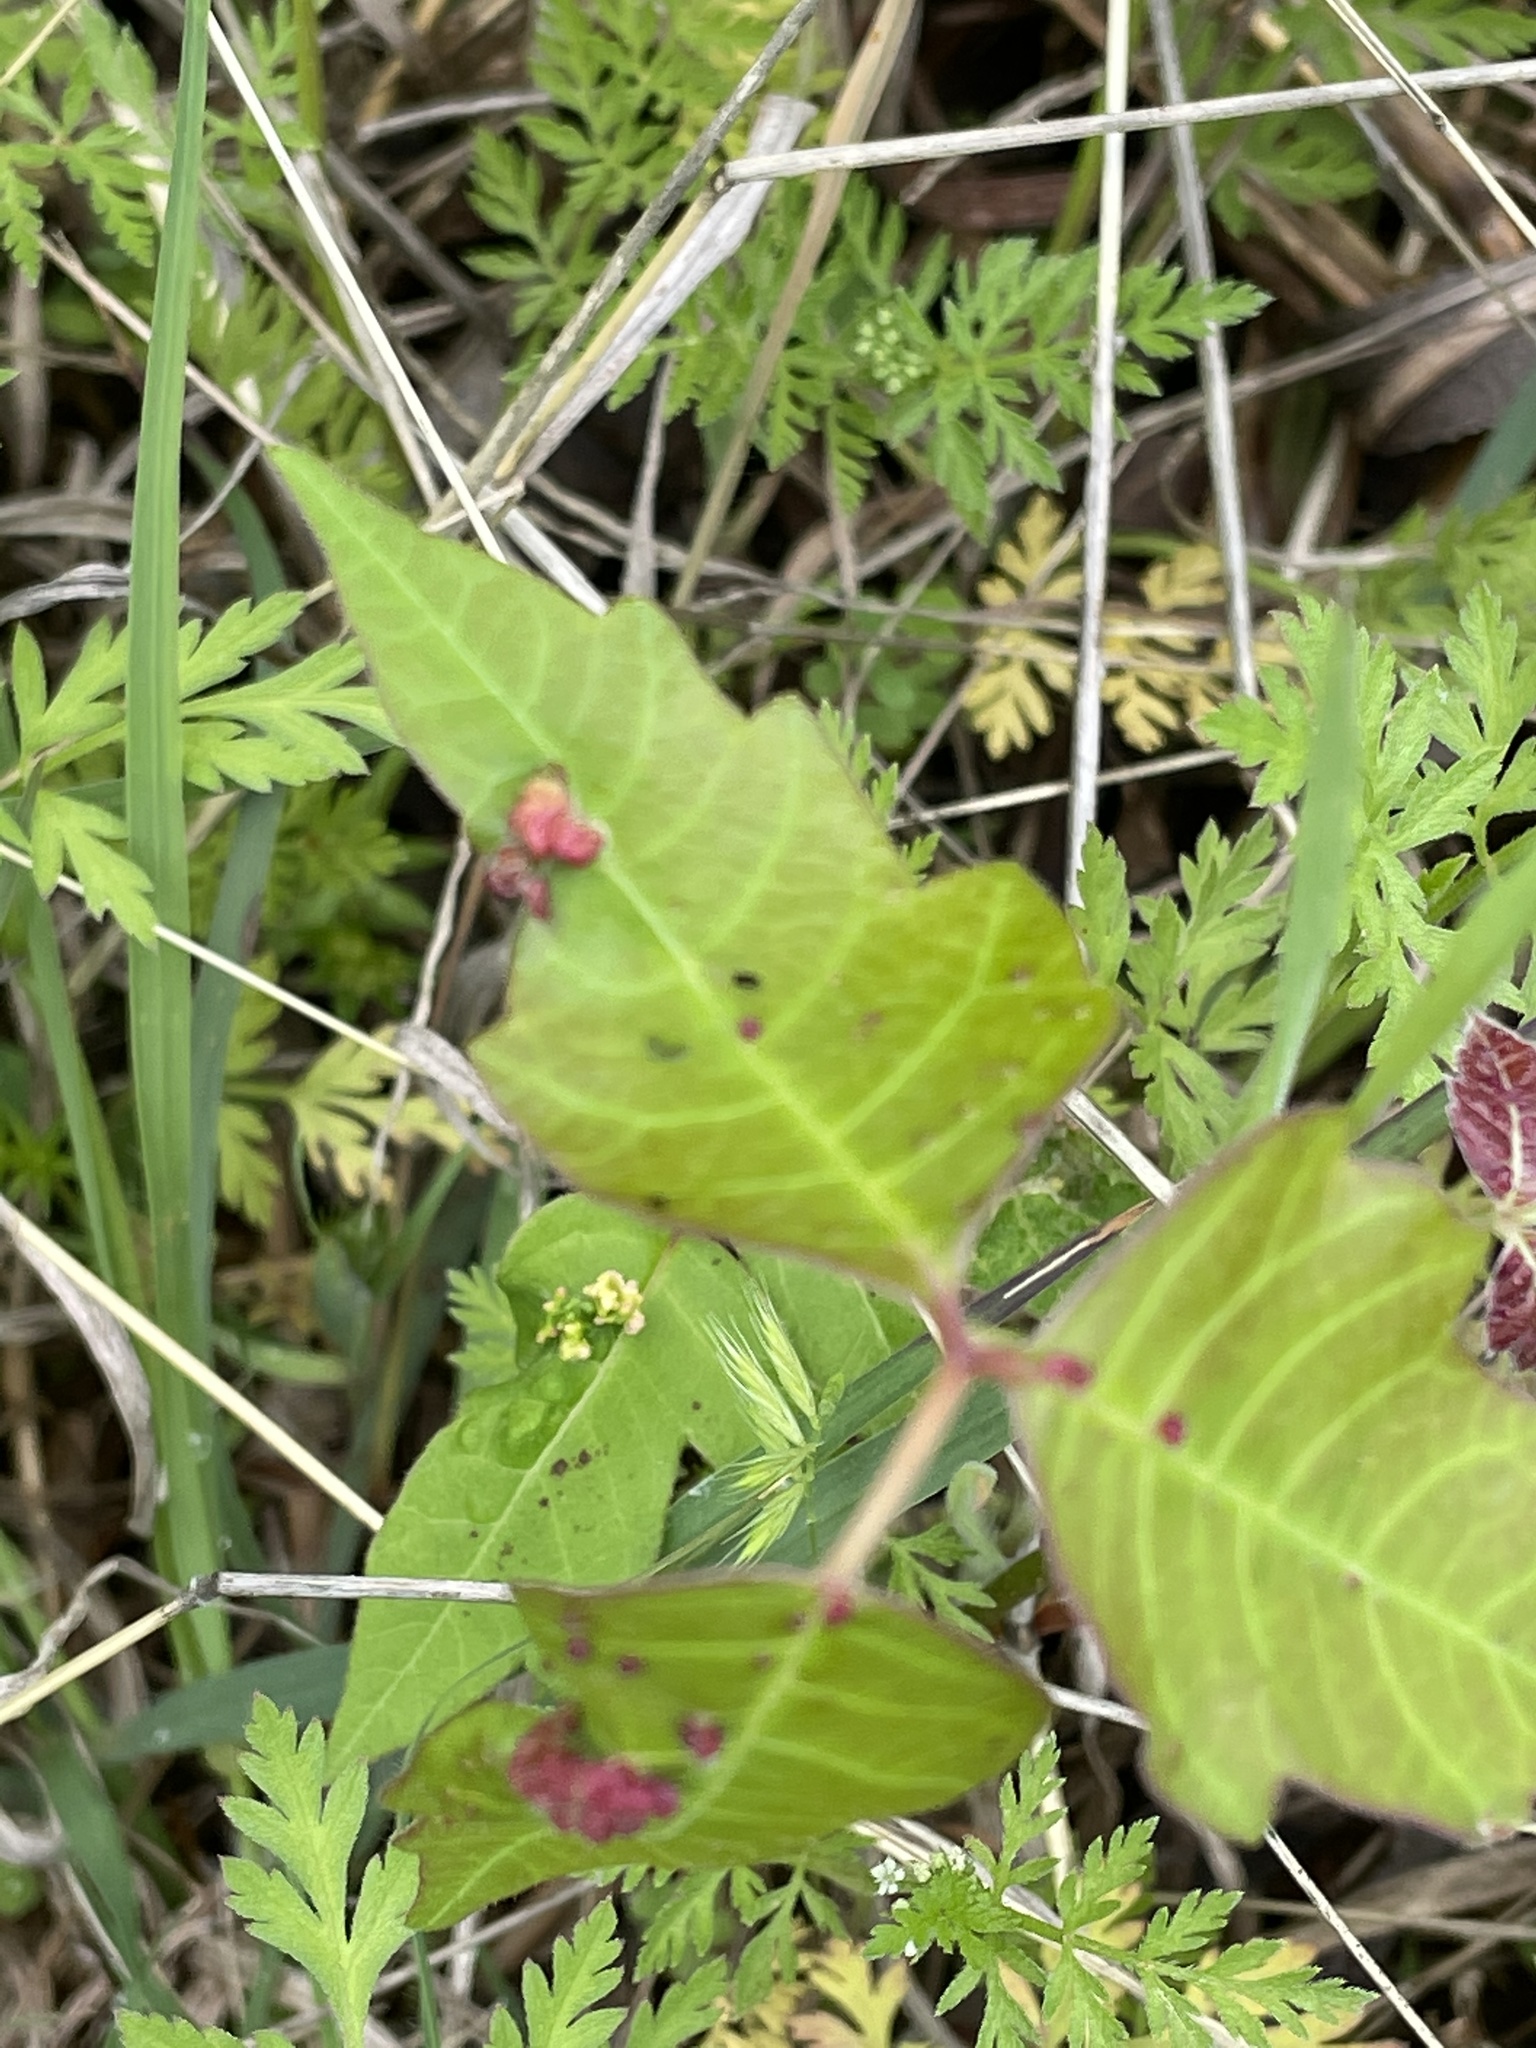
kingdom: Animalia
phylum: Arthropoda
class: Arachnida
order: Trombidiformes
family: Eriophyidae
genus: Aculops
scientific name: Aculops
